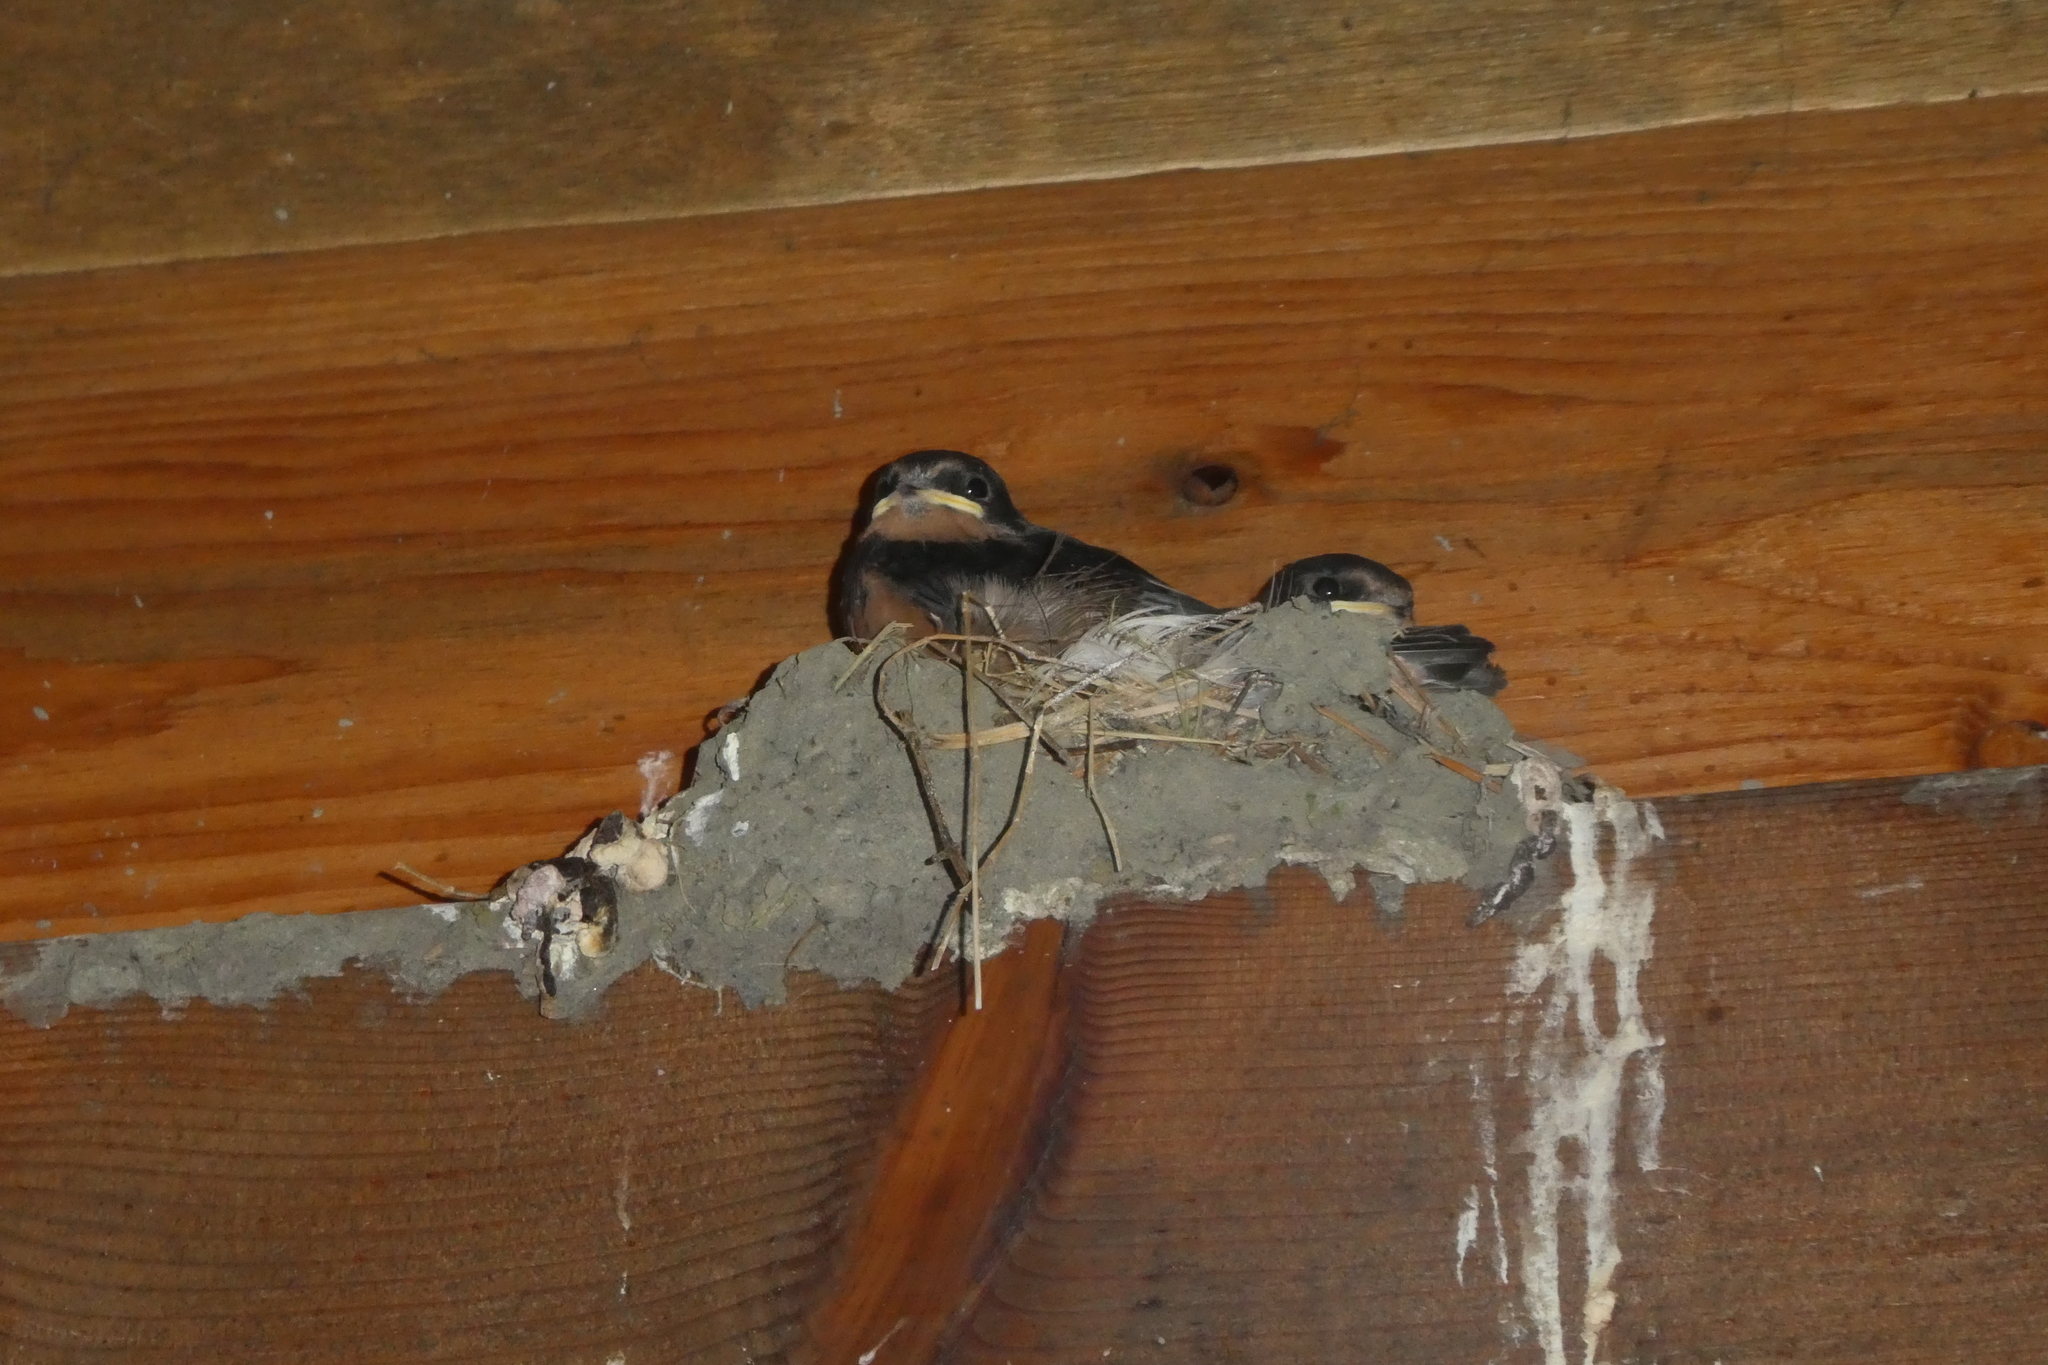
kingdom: Animalia
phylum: Chordata
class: Aves
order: Passeriformes
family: Hirundinidae
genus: Hirundo
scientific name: Hirundo rustica
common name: Barn swallow
